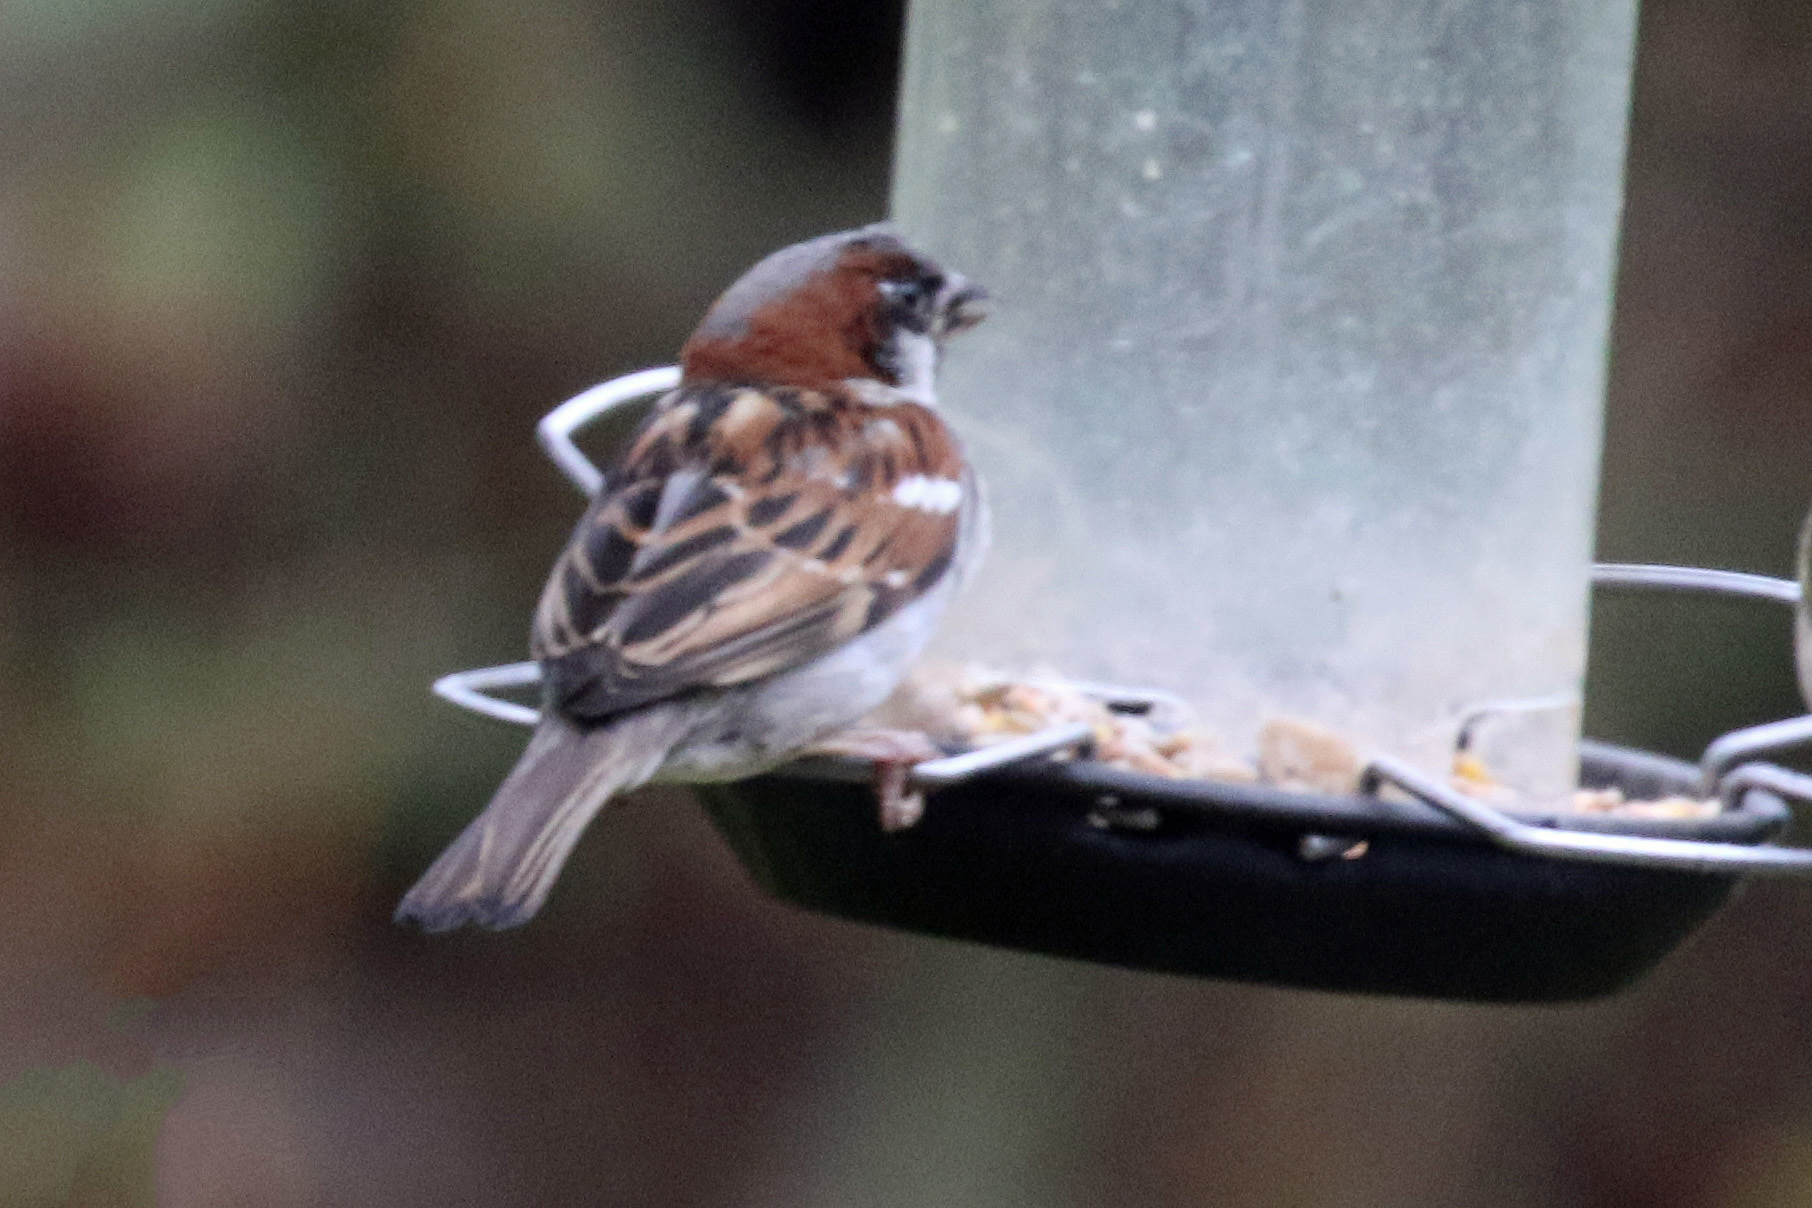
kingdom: Animalia
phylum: Chordata
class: Aves
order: Passeriformes
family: Passeridae
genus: Passer
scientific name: Passer domesticus
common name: House sparrow
